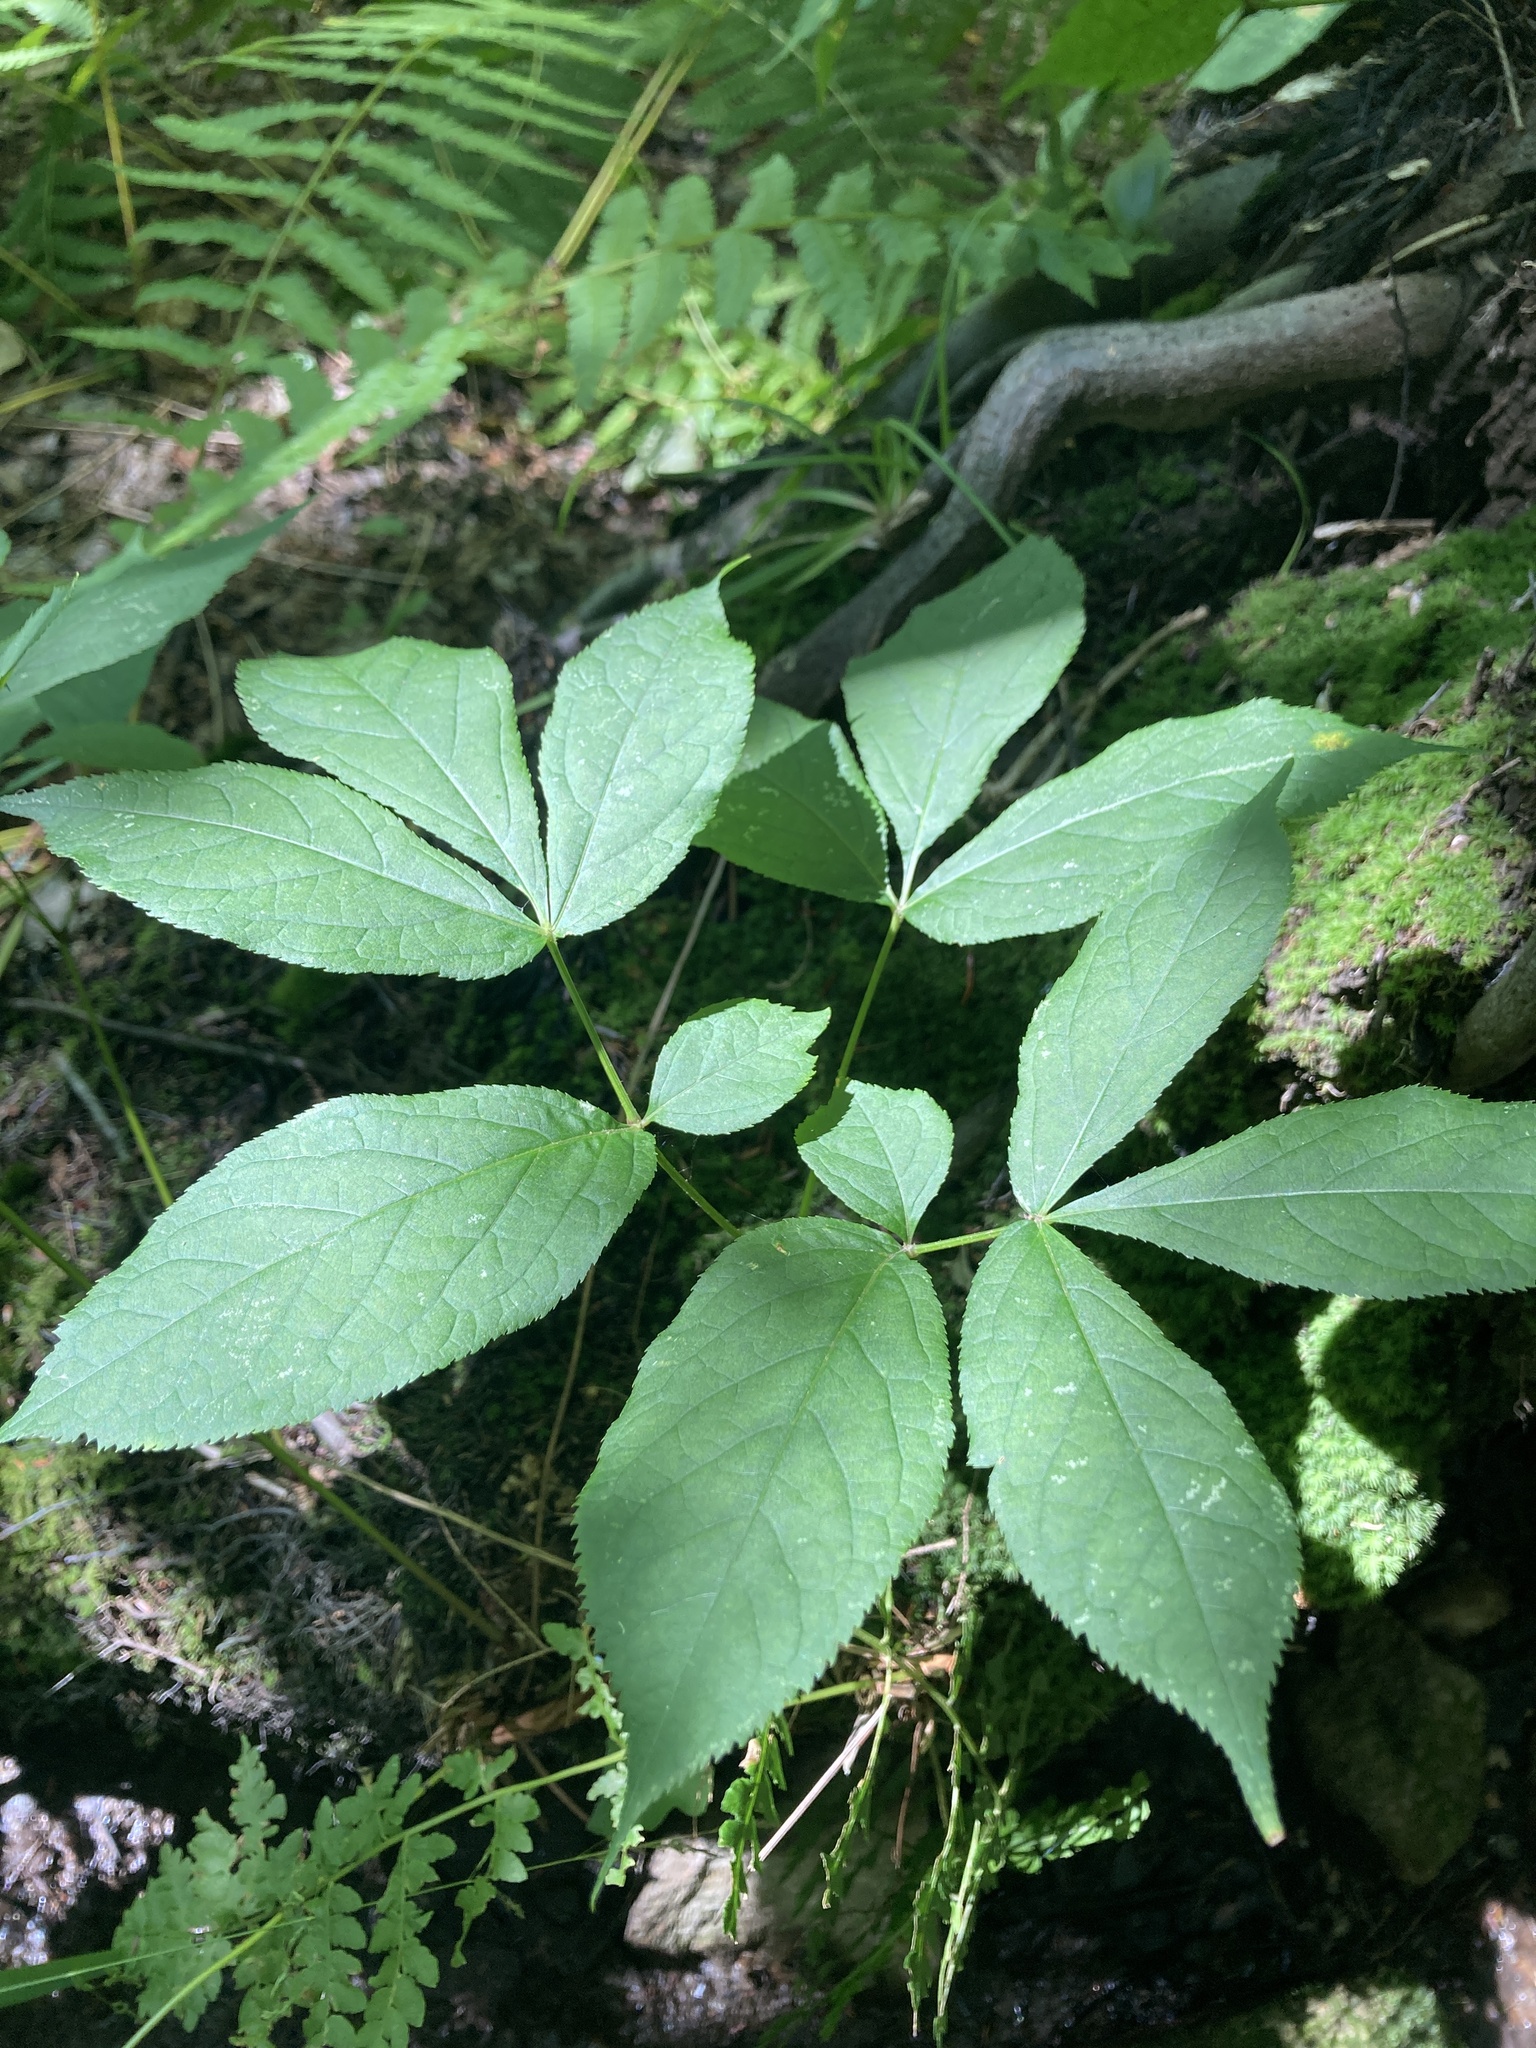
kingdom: Plantae
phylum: Tracheophyta
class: Magnoliopsida
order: Apiales
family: Araliaceae
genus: Aralia
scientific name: Aralia nudicaulis
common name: Wild sarsaparilla
